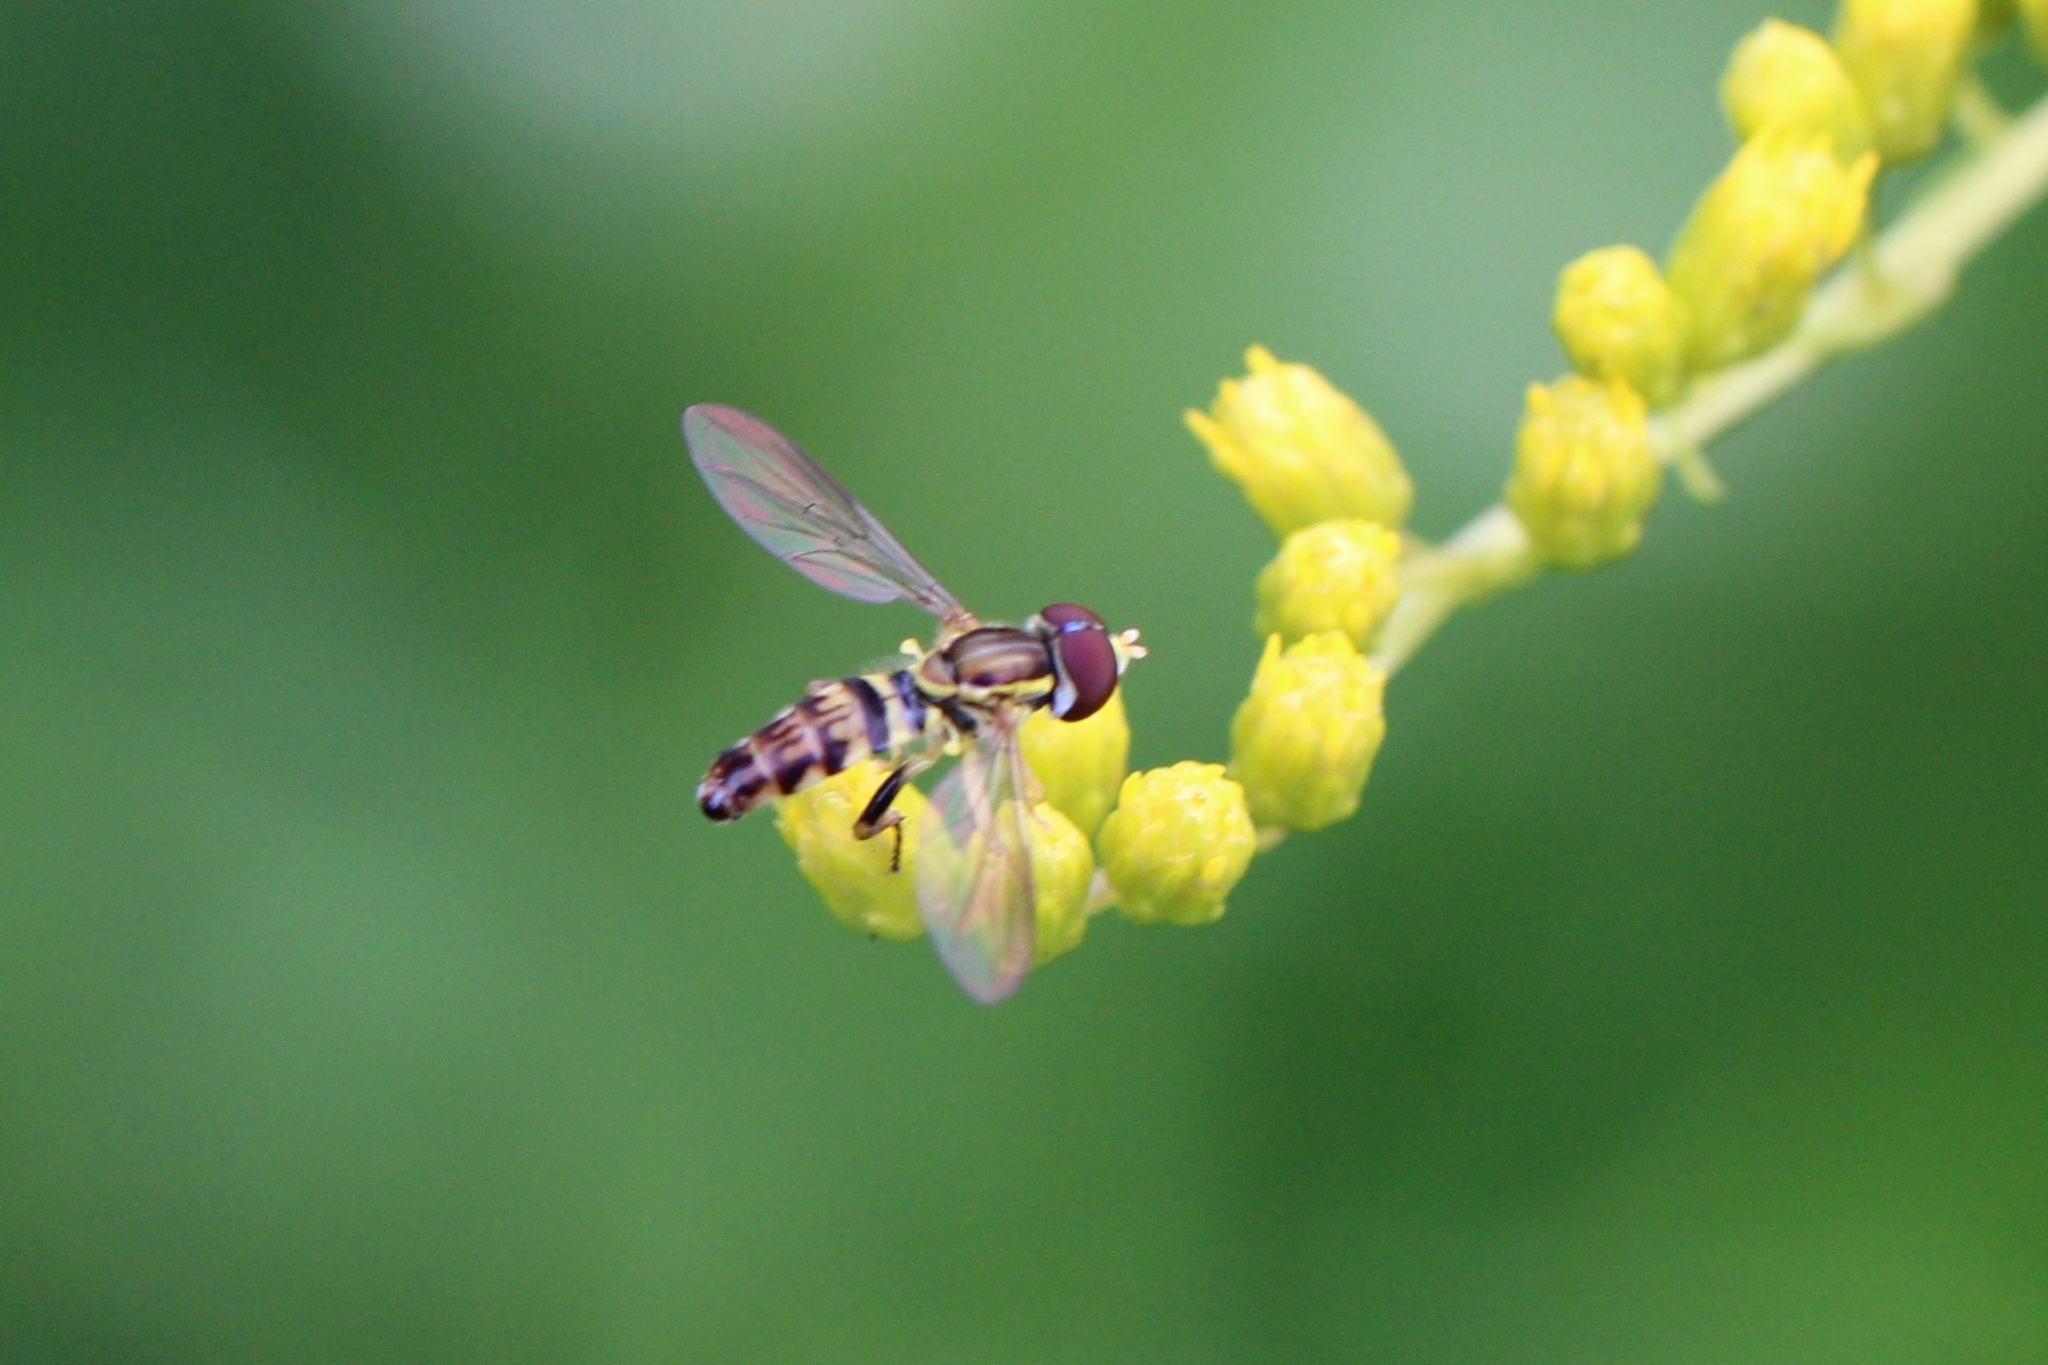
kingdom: Animalia
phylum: Arthropoda
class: Insecta
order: Diptera
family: Syrphidae
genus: Toxomerus
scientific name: Toxomerus geminatus
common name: Eastern calligrapher
